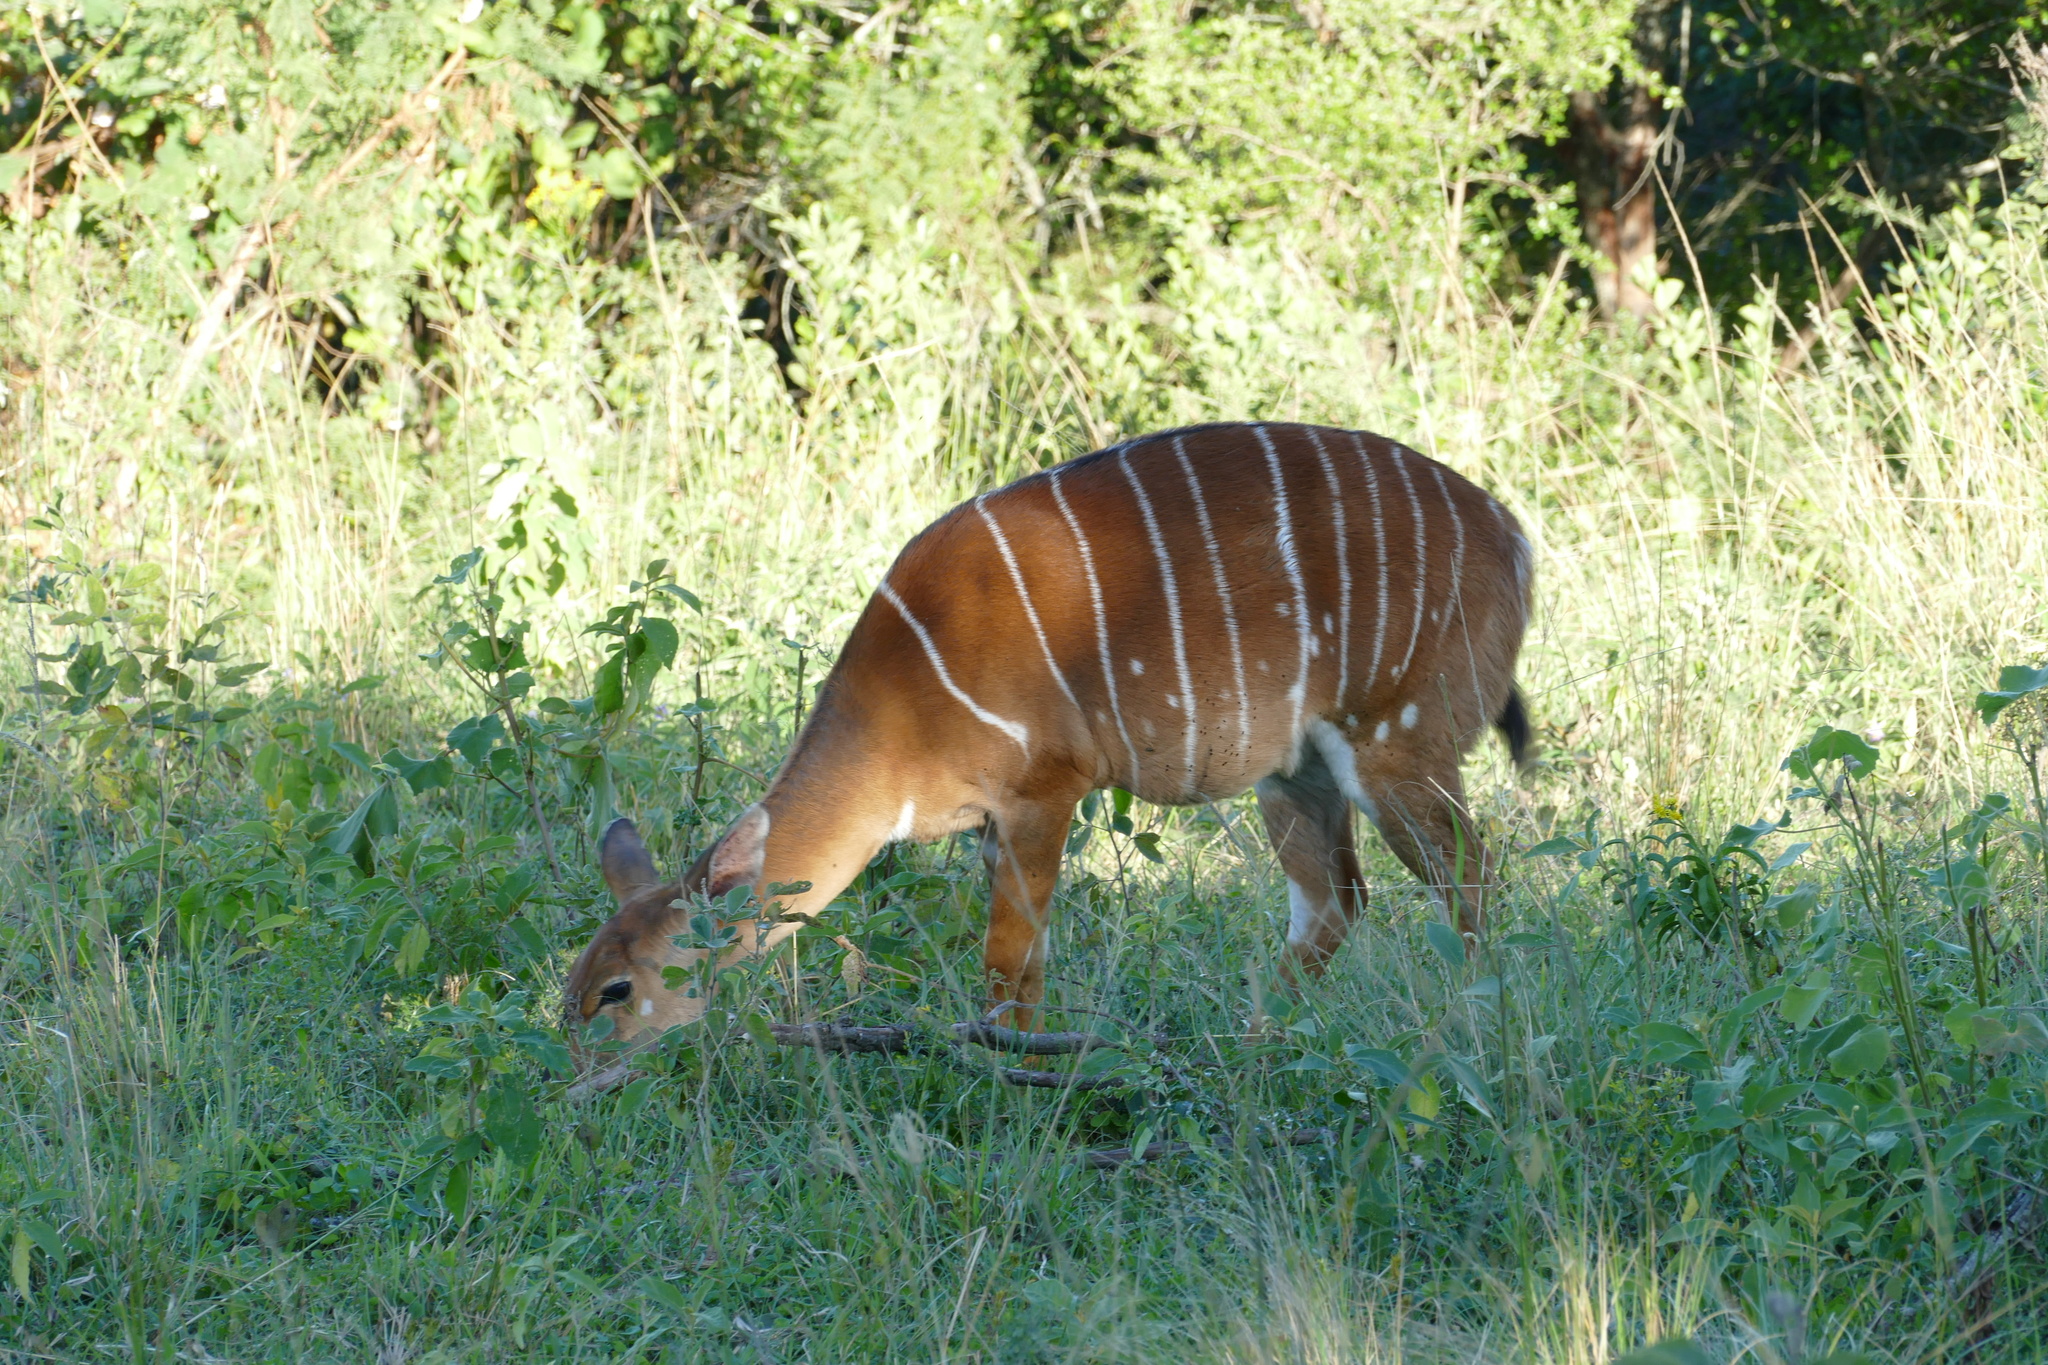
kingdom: Animalia
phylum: Chordata
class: Mammalia
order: Artiodactyla
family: Bovidae
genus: Tragelaphus
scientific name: Tragelaphus angasii
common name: Nyala
